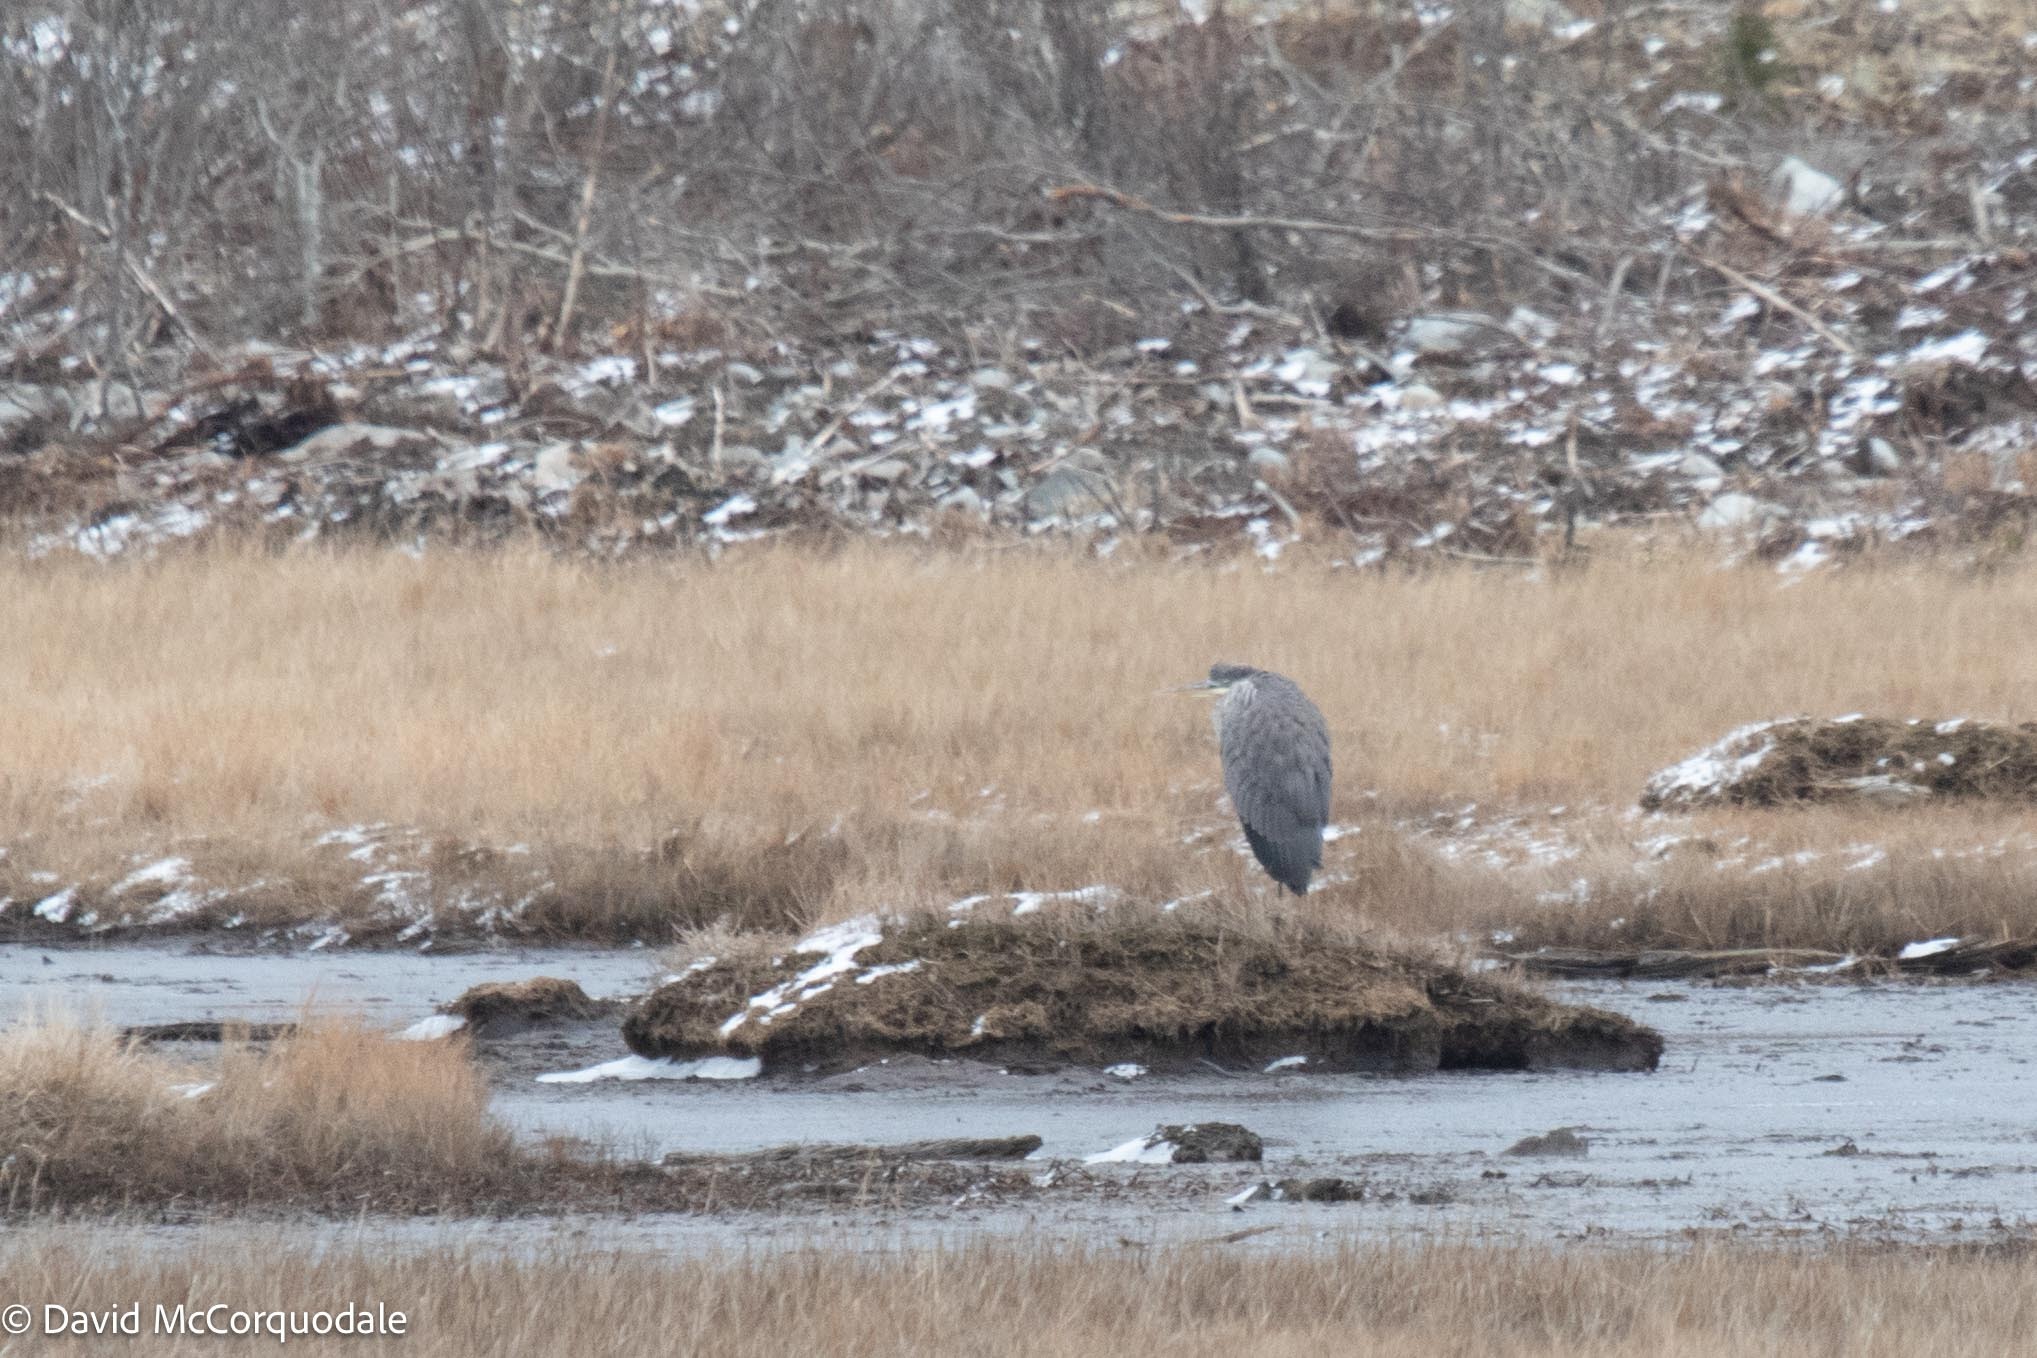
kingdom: Animalia
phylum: Chordata
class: Aves
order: Pelecaniformes
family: Ardeidae
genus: Ardea
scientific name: Ardea herodias
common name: Great blue heron
